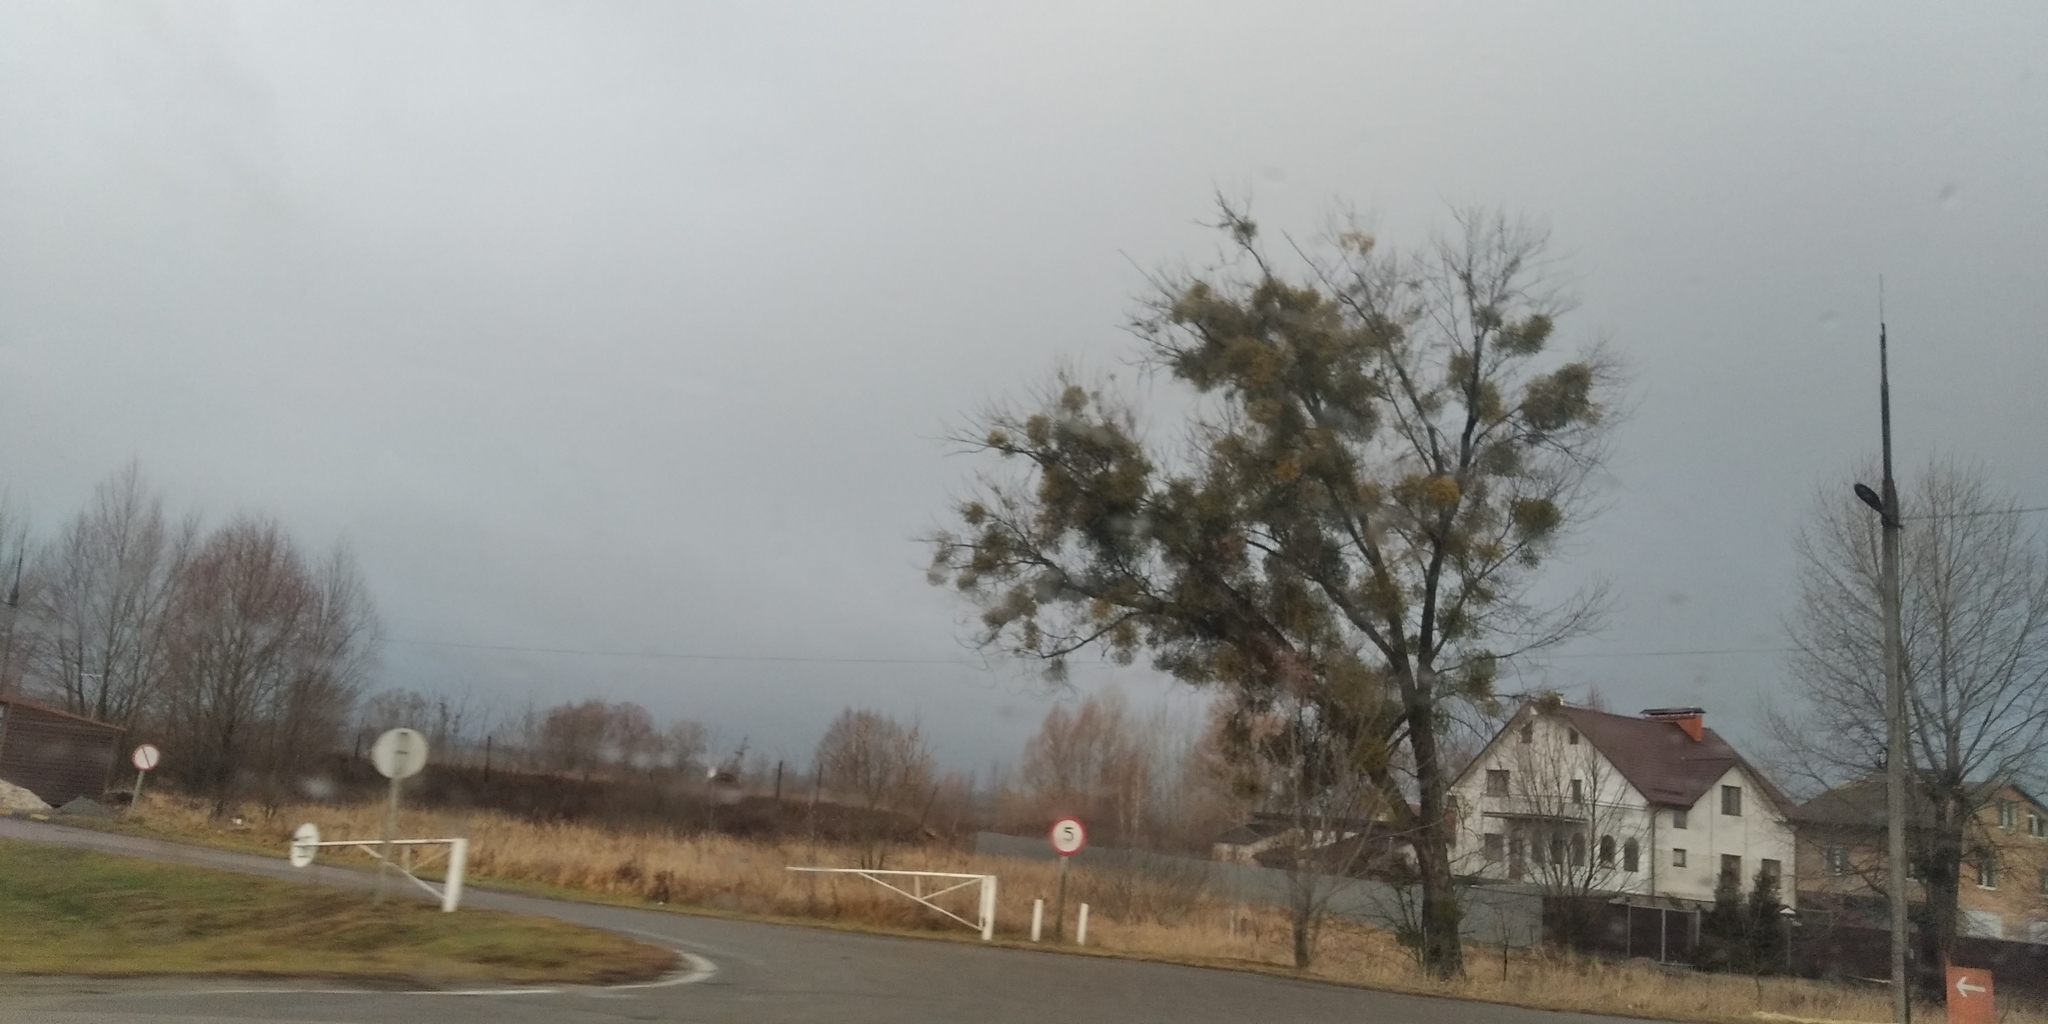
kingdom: Plantae
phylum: Tracheophyta
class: Magnoliopsida
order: Santalales
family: Viscaceae
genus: Viscum
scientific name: Viscum album
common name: Mistletoe
